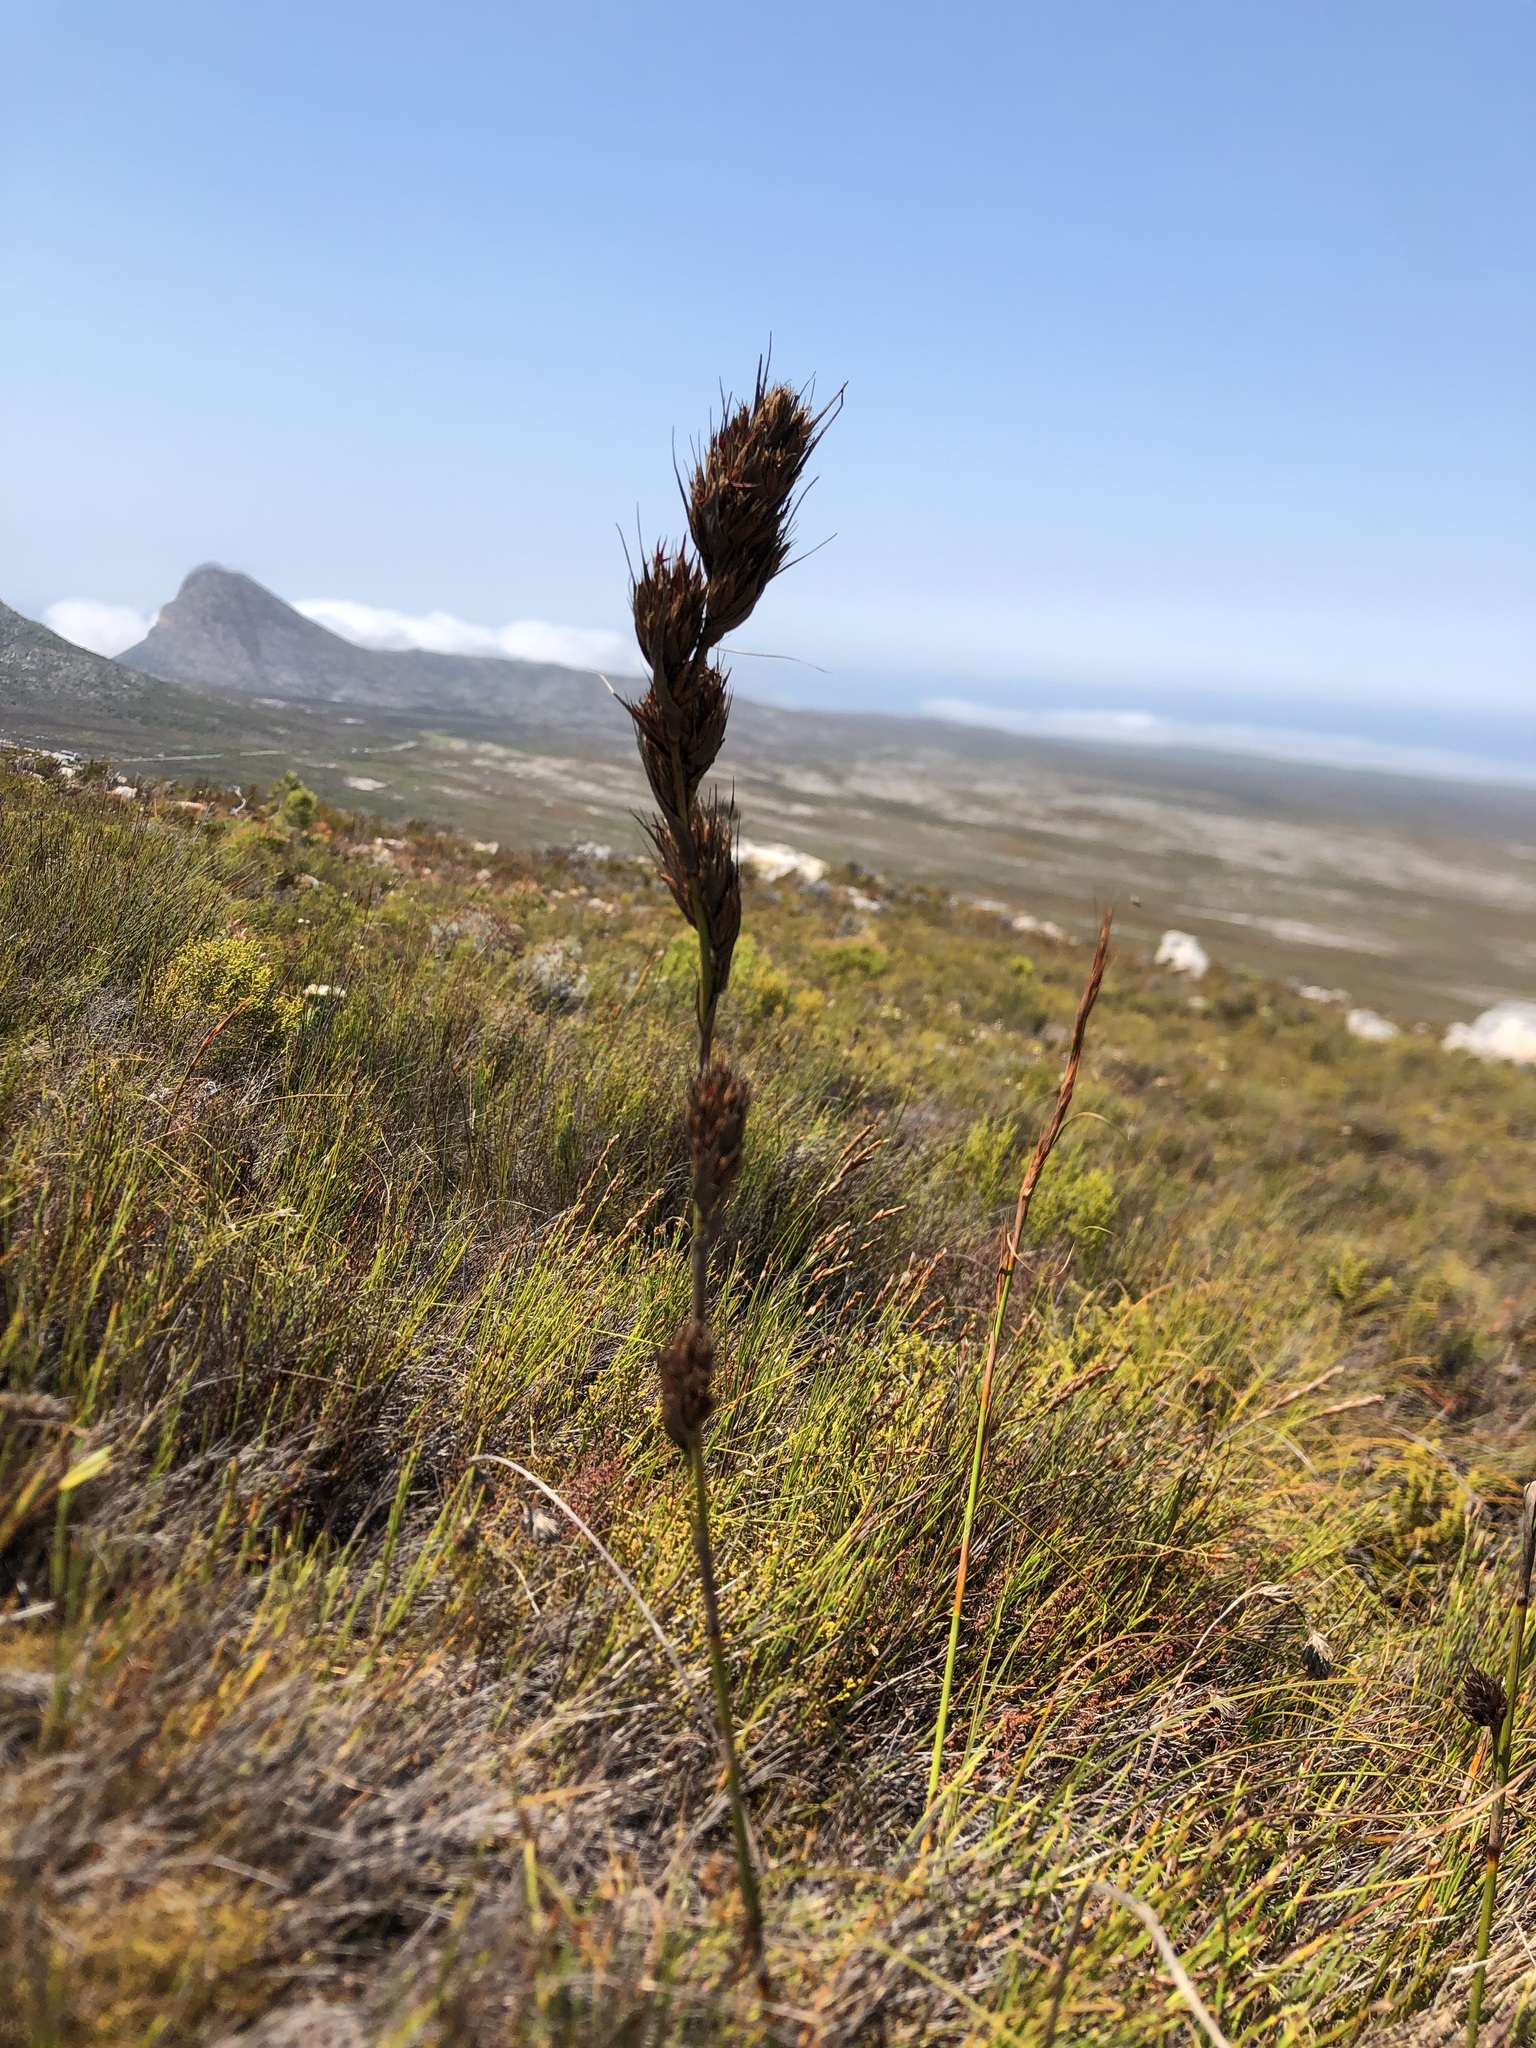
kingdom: Plantae
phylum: Tracheophyta
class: Liliopsida
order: Poales
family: Cyperaceae
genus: Tetraria
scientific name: Tetraria bromoides
